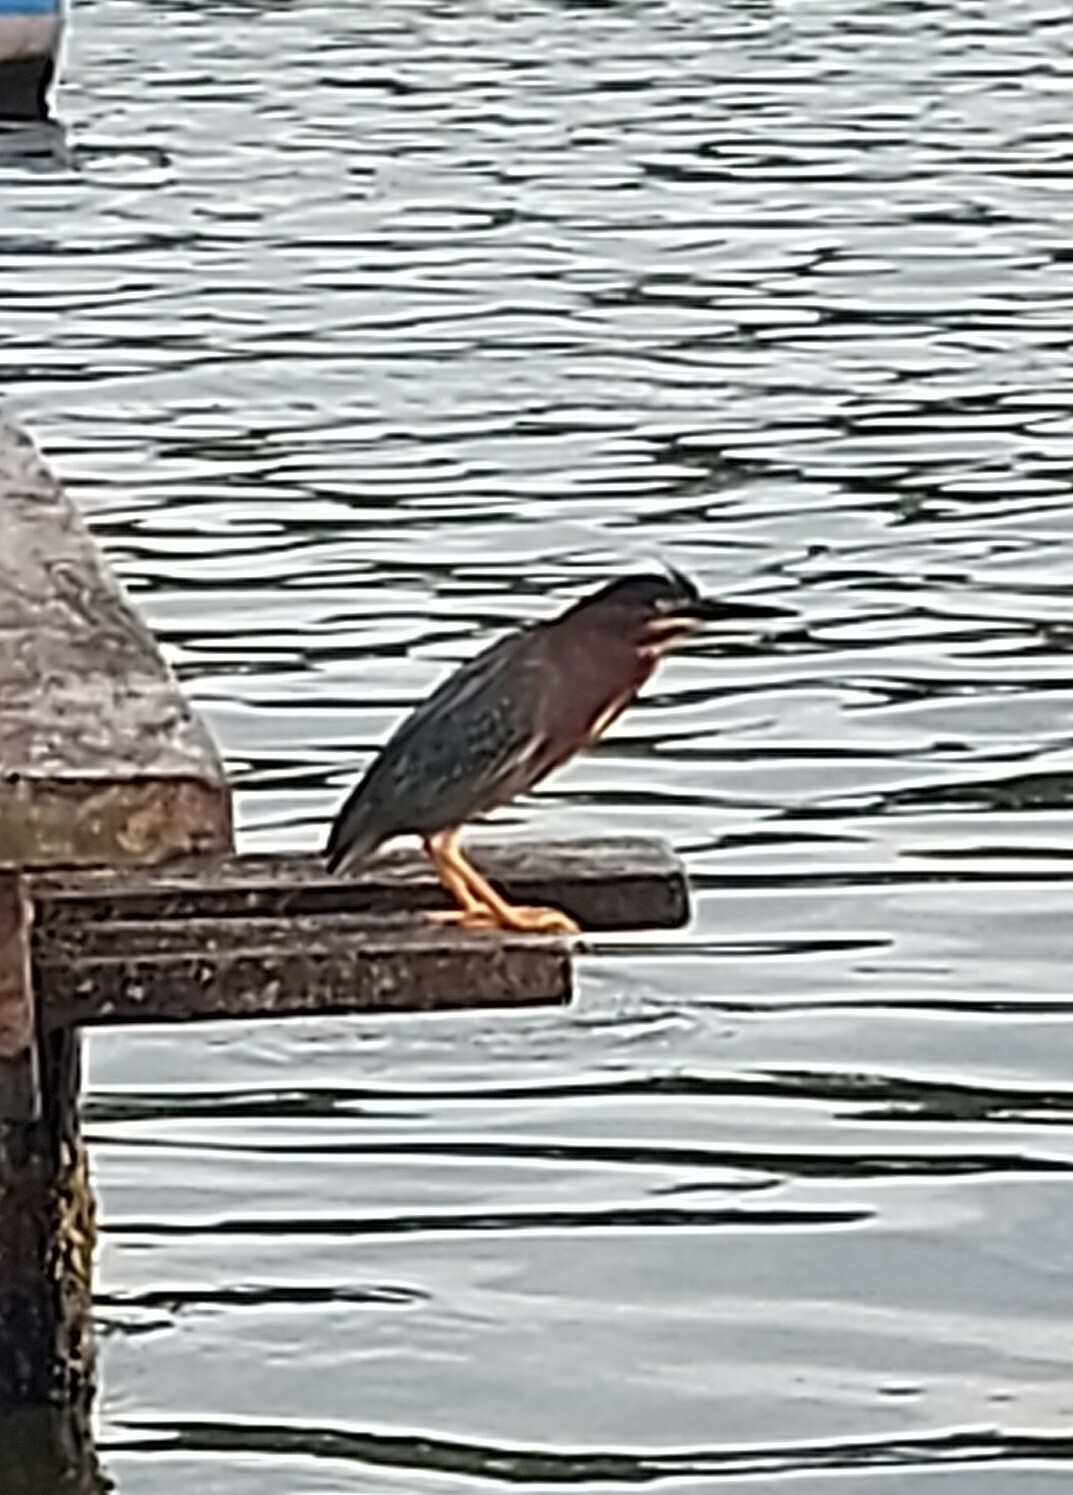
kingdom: Animalia
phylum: Chordata
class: Aves
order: Pelecaniformes
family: Ardeidae
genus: Butorides
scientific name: Butorides virescens
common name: Green heron
